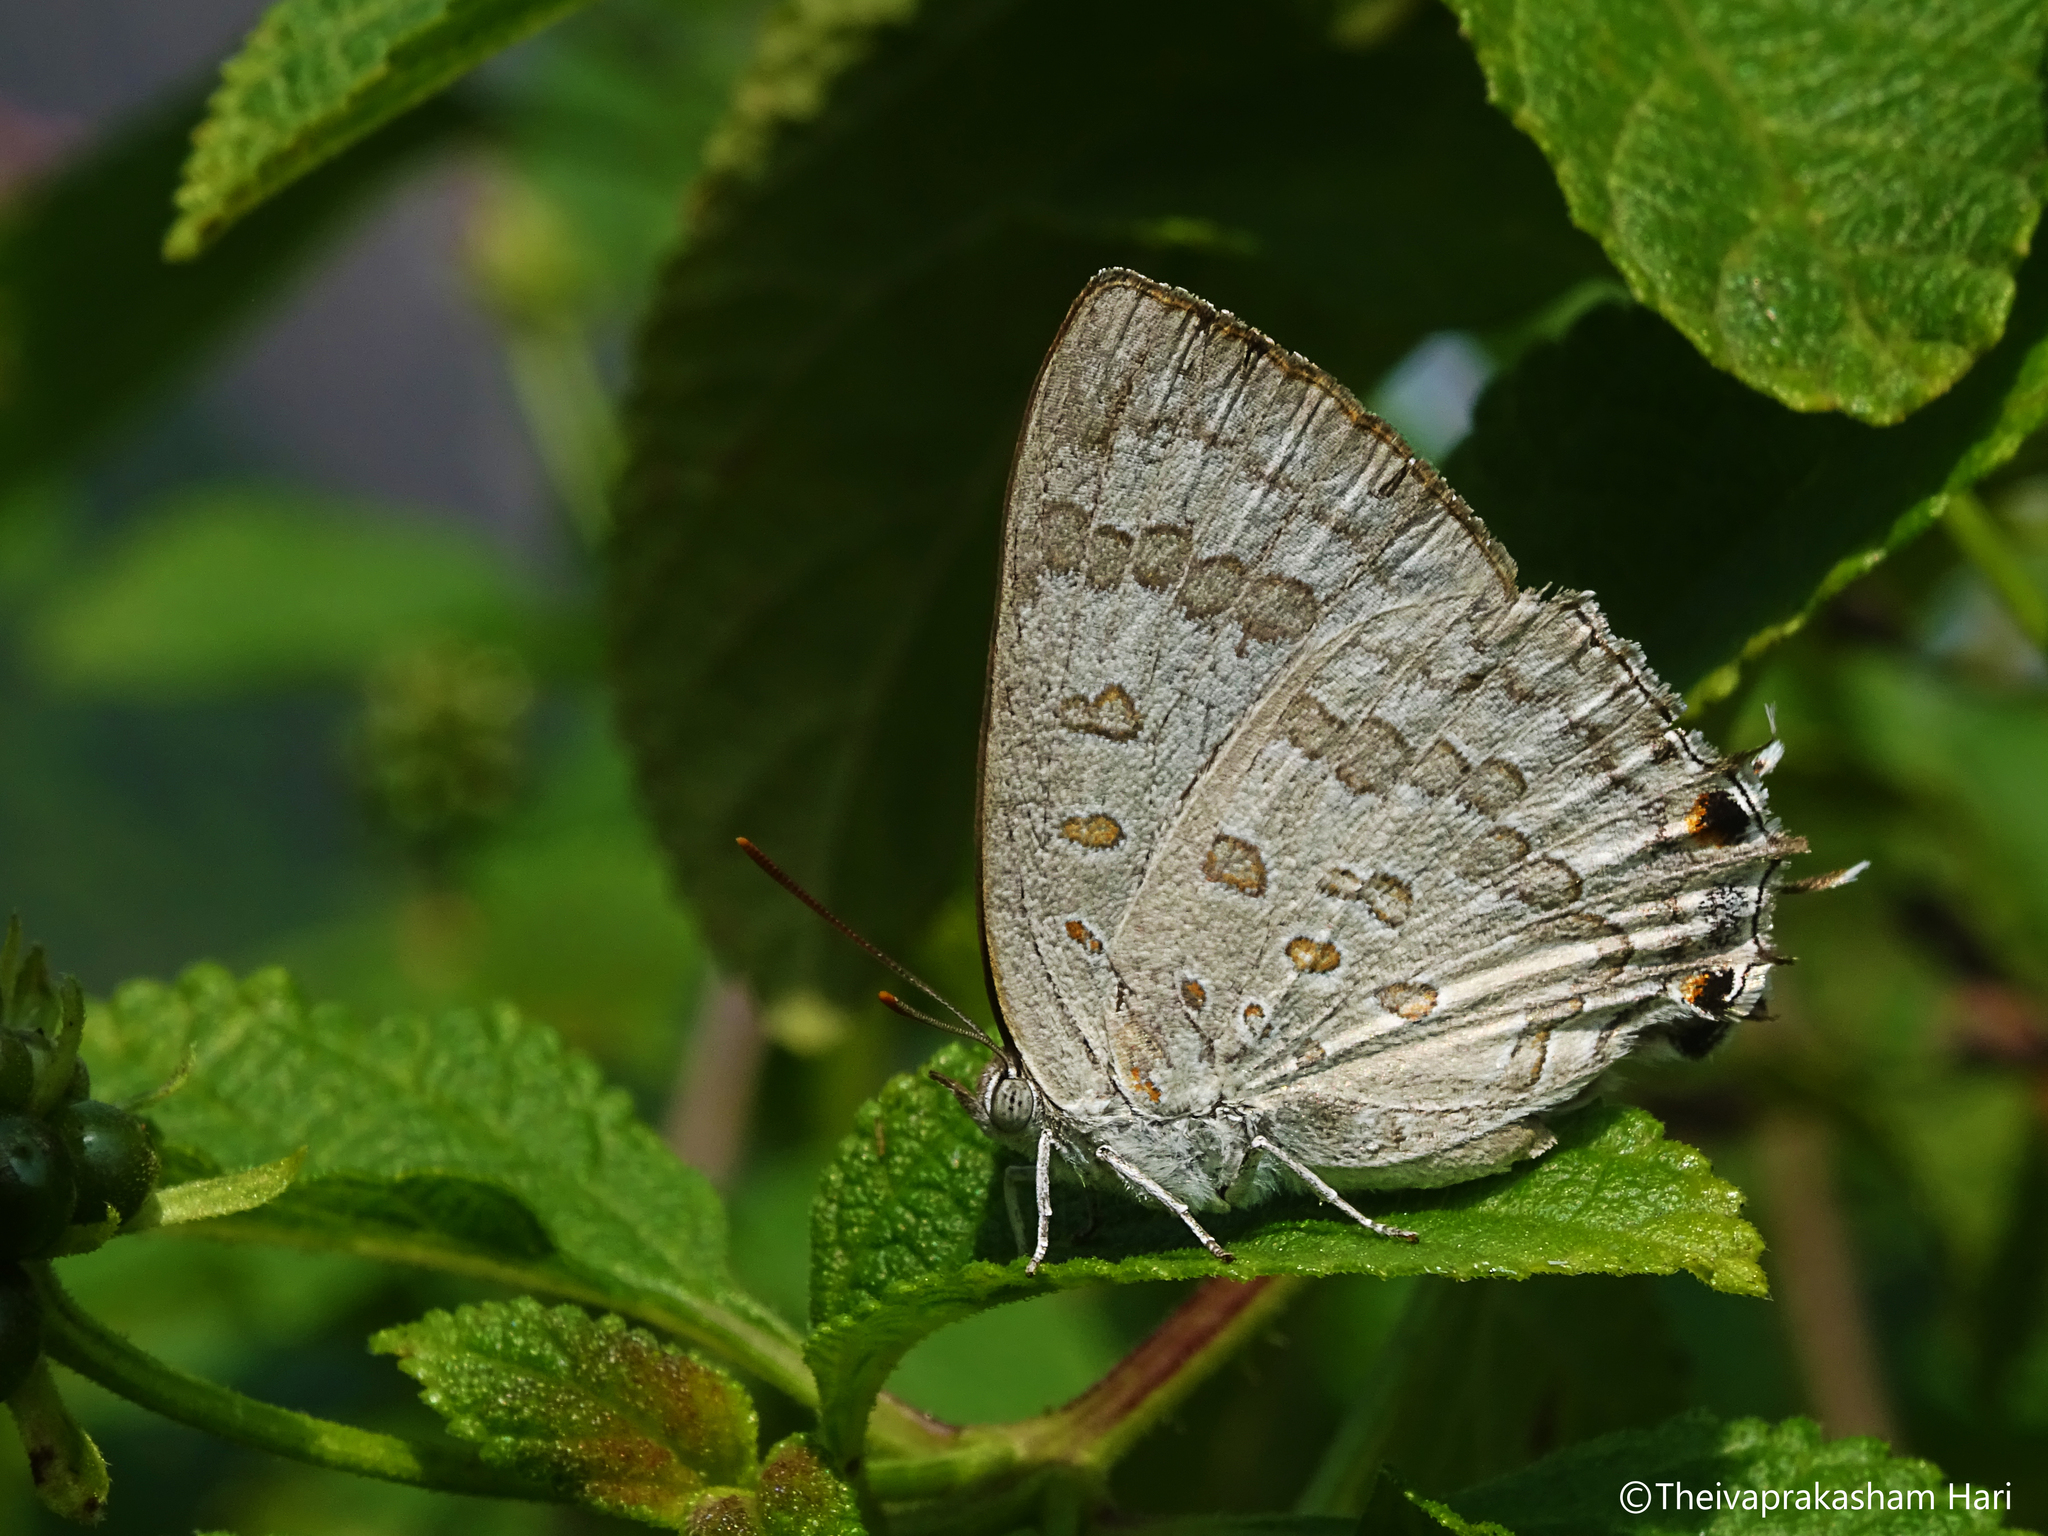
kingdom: Animalia
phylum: Arthropoda
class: Insecta
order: Lepidoptera
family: Lycaenidae
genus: Zesius
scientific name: Zesius chrysomallus
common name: Redspot
